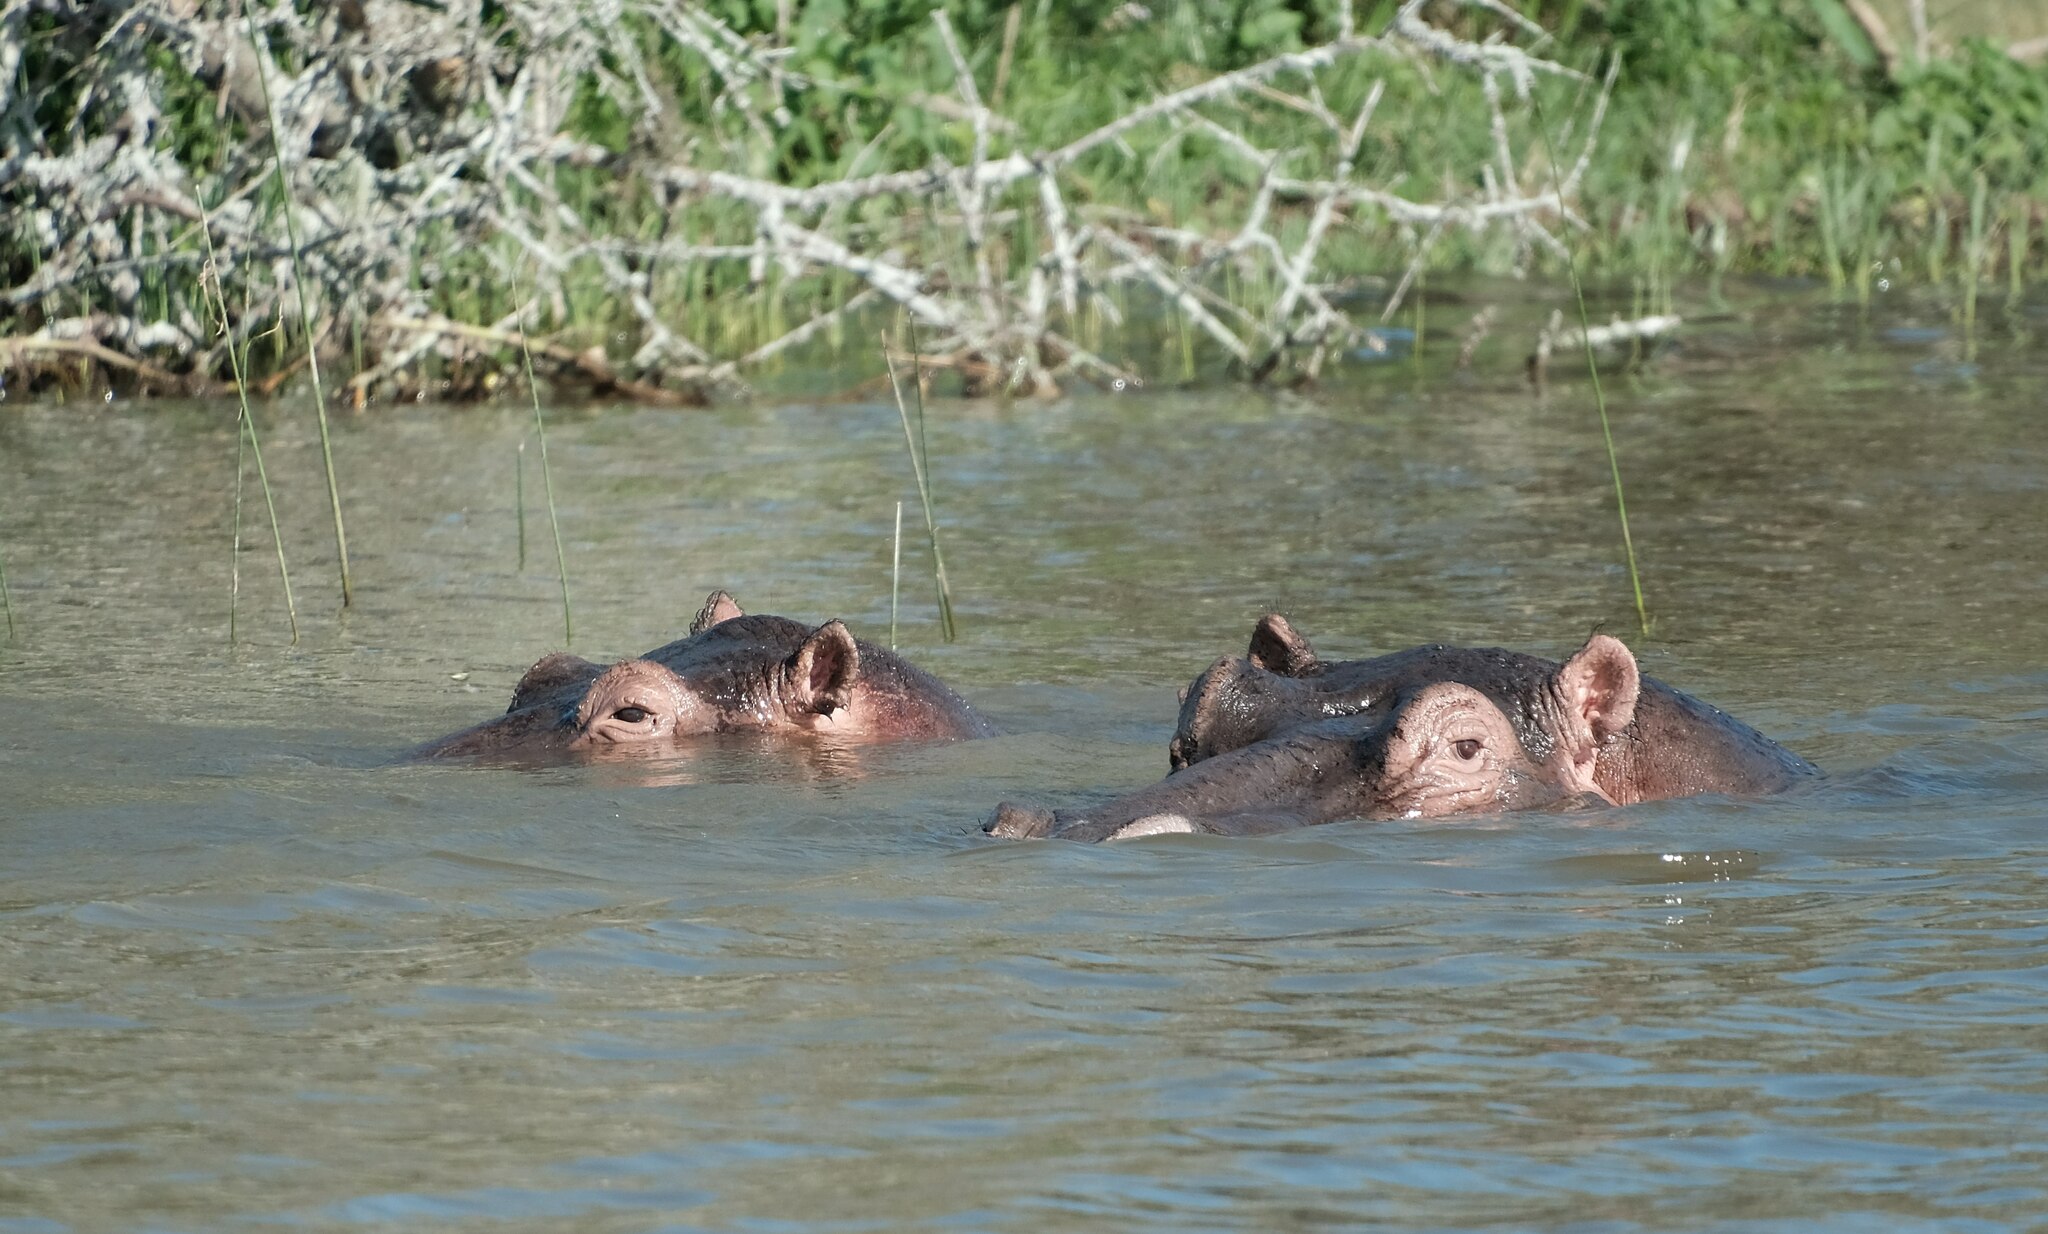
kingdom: Animalia
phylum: Chordata
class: Mammalia
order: Artiodactyla
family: Hippopotamidae
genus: Hippopotamus
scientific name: Hippopotamus amphibius
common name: Common hippopotamus
